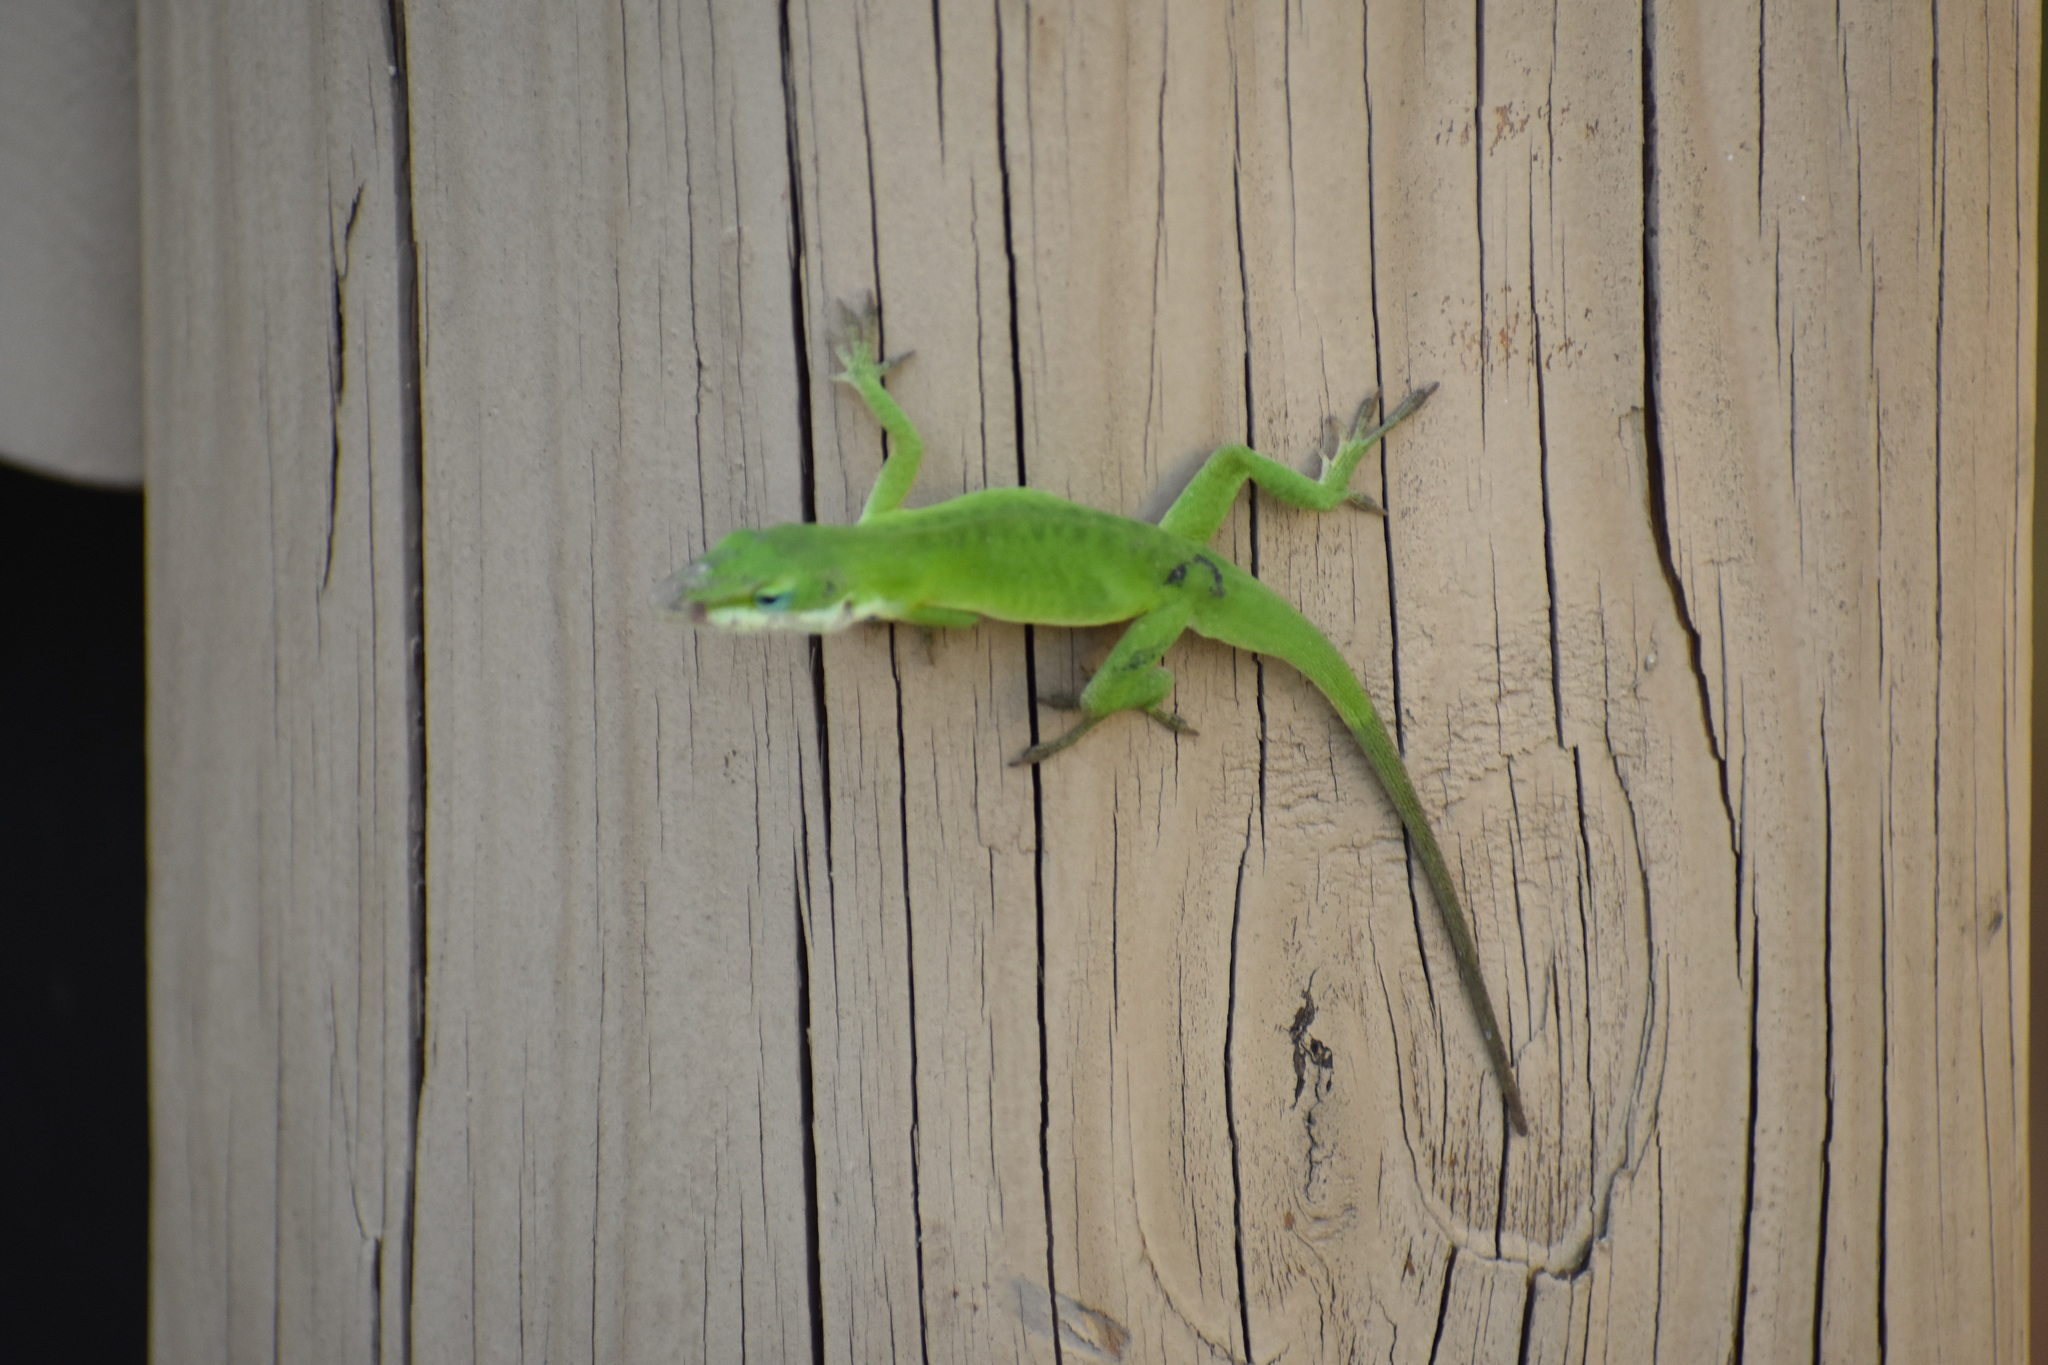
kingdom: Animalia
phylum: Chordata
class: Squamata
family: Dactyloidae
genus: Anolis
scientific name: Anolis carolinensis
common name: Green anole
